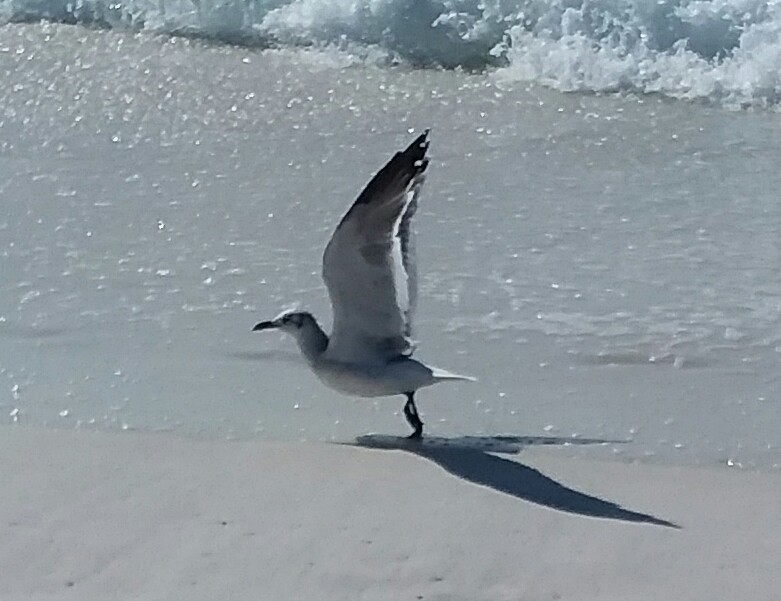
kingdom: Animalia
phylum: Chordata
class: Aves
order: Charadriiformes
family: Laridae
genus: Leucophaeus
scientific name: Leucophaeus atricilla
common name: Laughing gull
